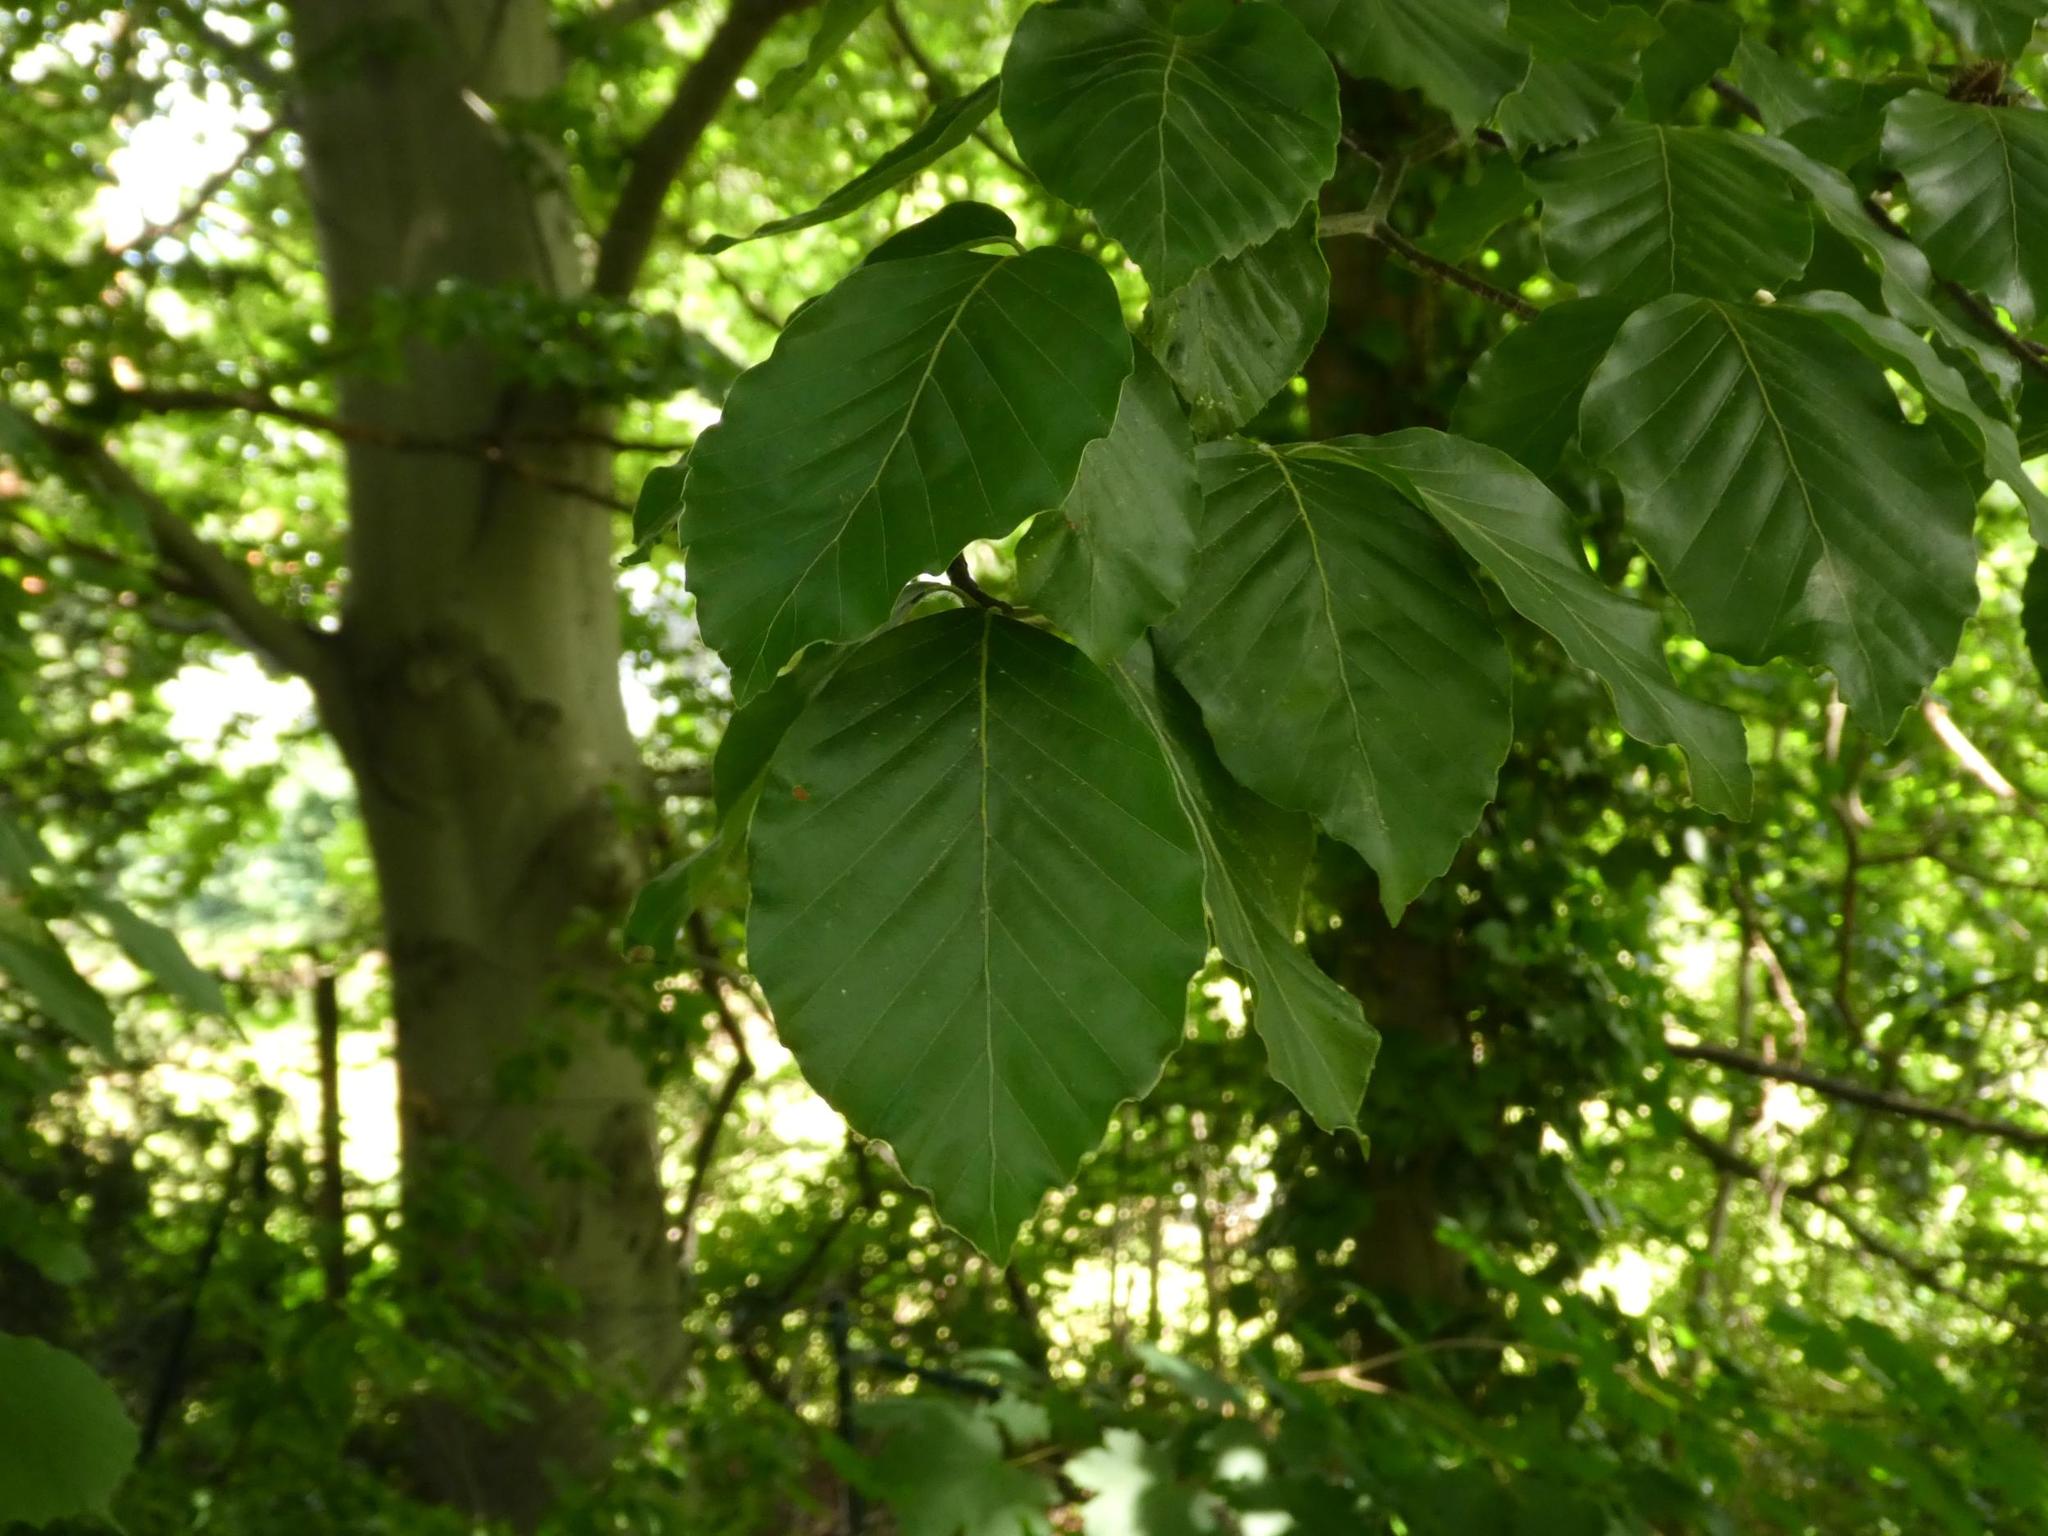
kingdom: Plantae
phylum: Tracheophyta
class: Magnoliopsida
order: Fagales
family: Fagaceae
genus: Fagus
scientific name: Fagus sylvatica
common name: Beech
